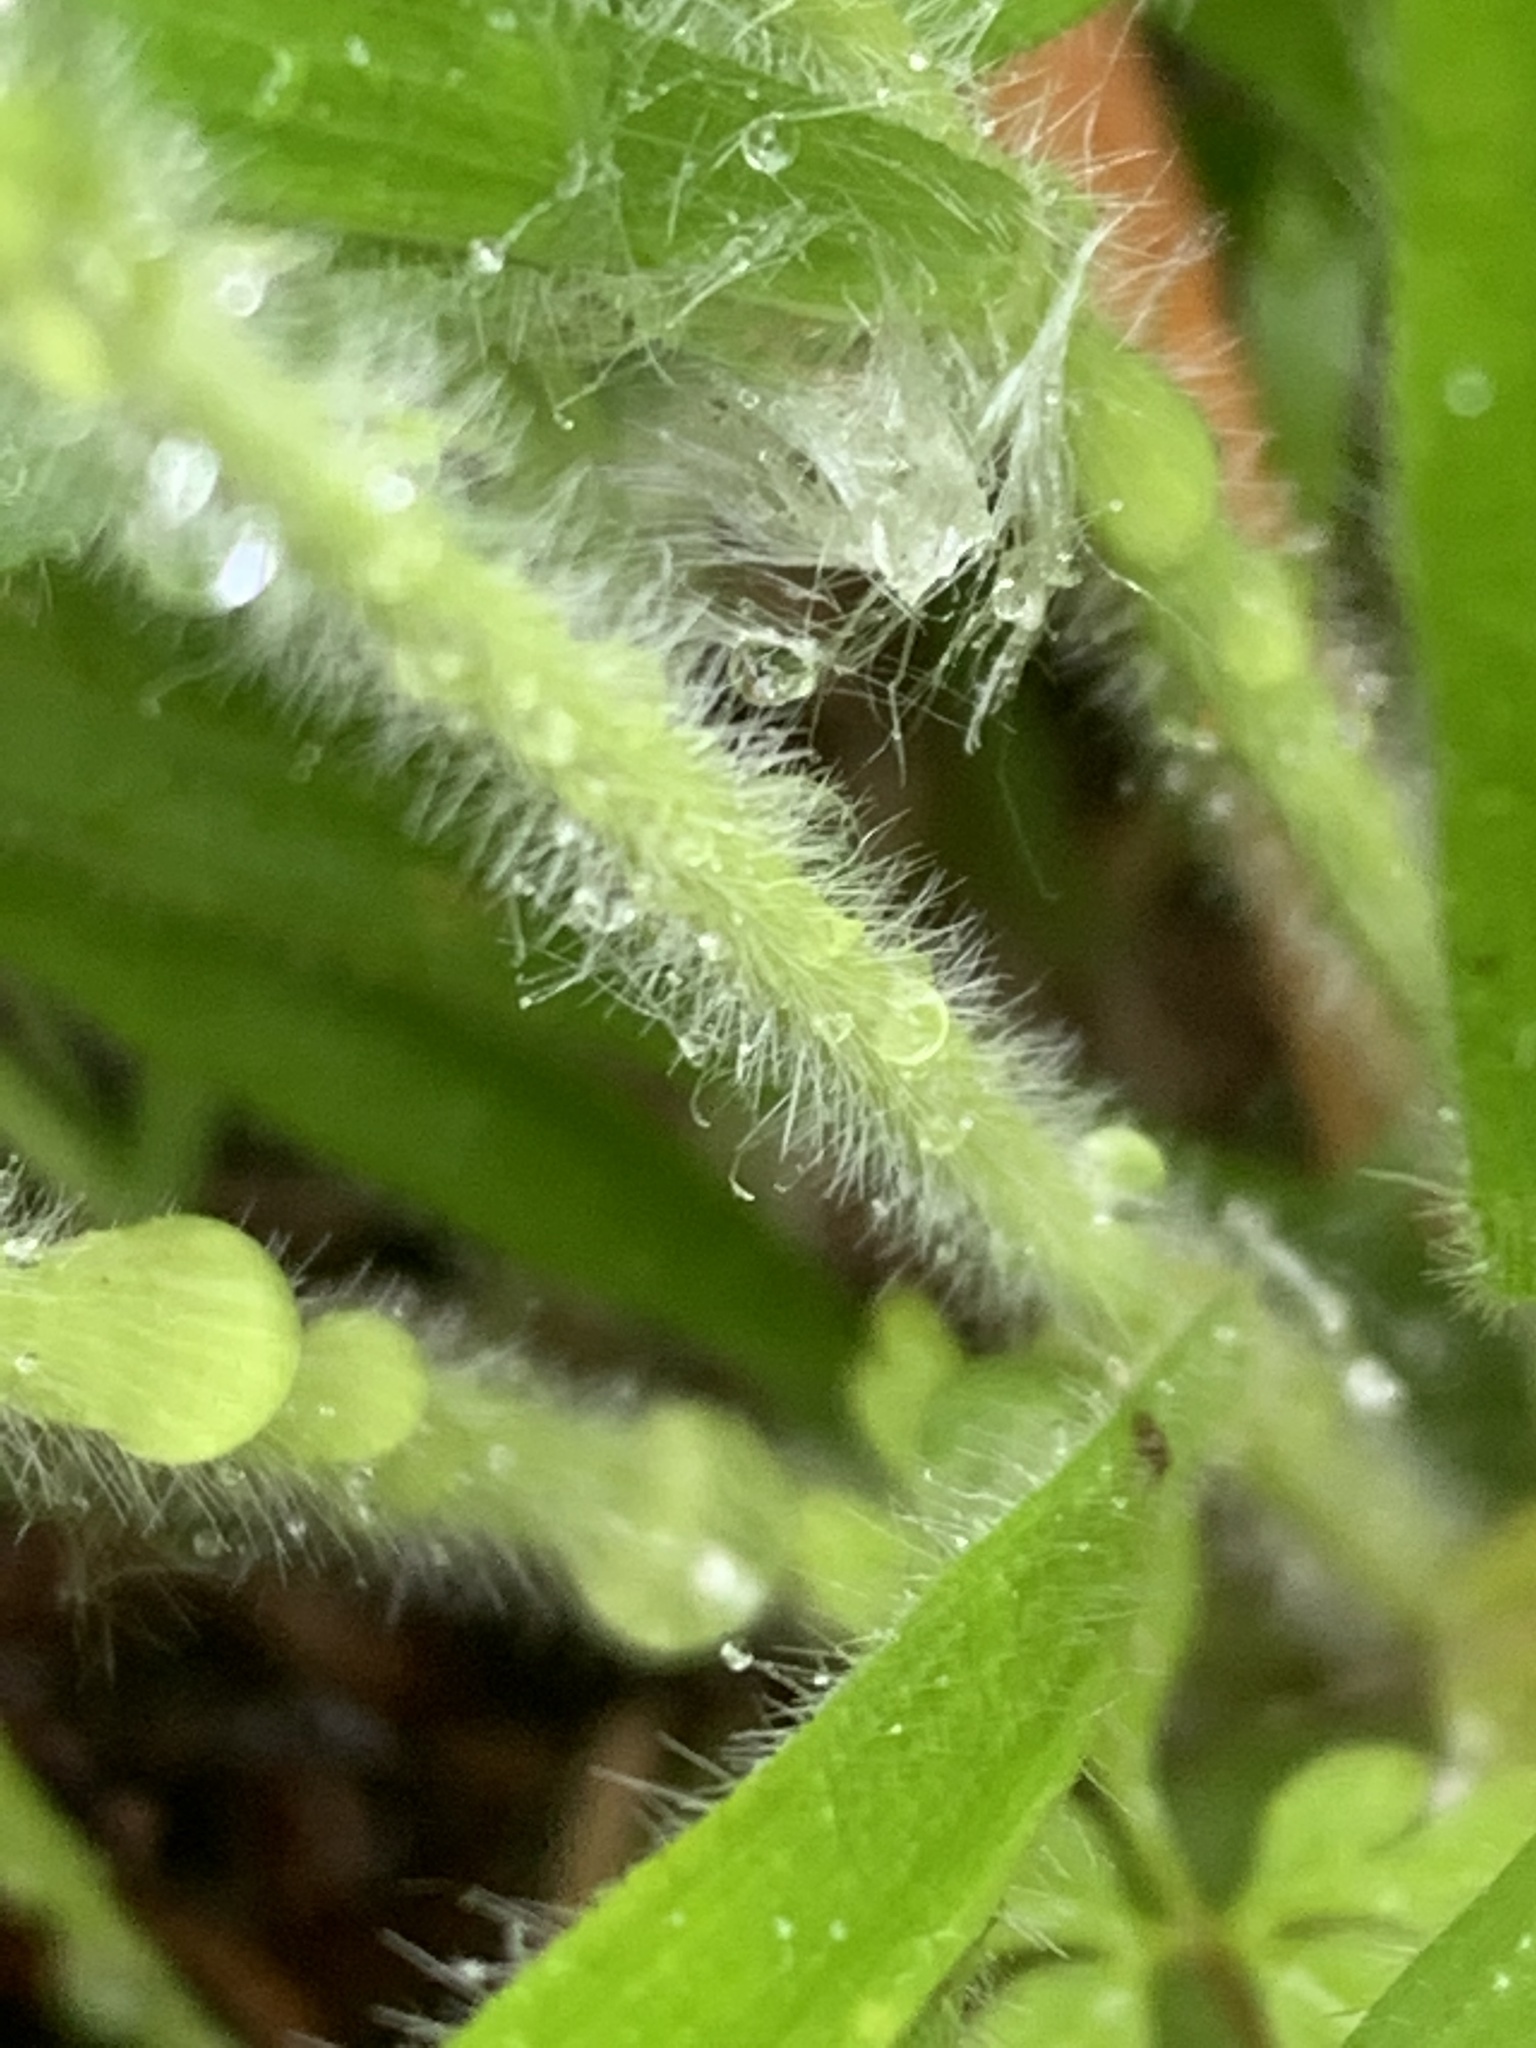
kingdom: Plantae
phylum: Tracheophyta
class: Liliopsida
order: Poales
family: Poaceae
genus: Brachypodium
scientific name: Brachypodium sylvaticum
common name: False-brome
